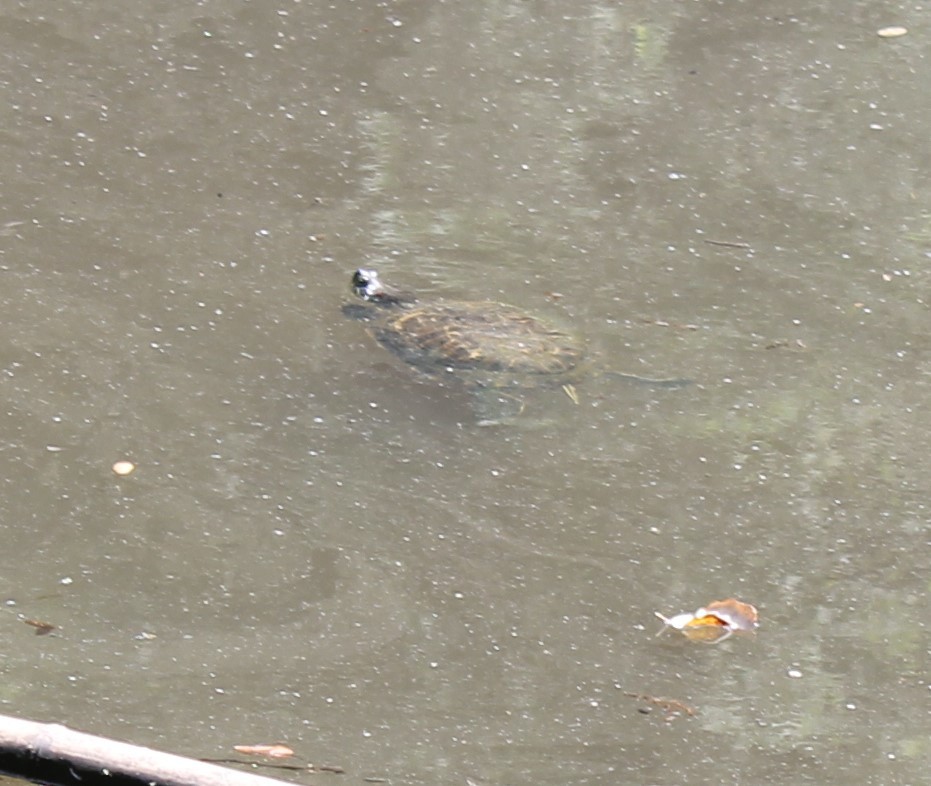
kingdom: Animalia
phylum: Chordata
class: Testudines
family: Emydidae
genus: Trachemys
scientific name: Trachemys scripta
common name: Slider
